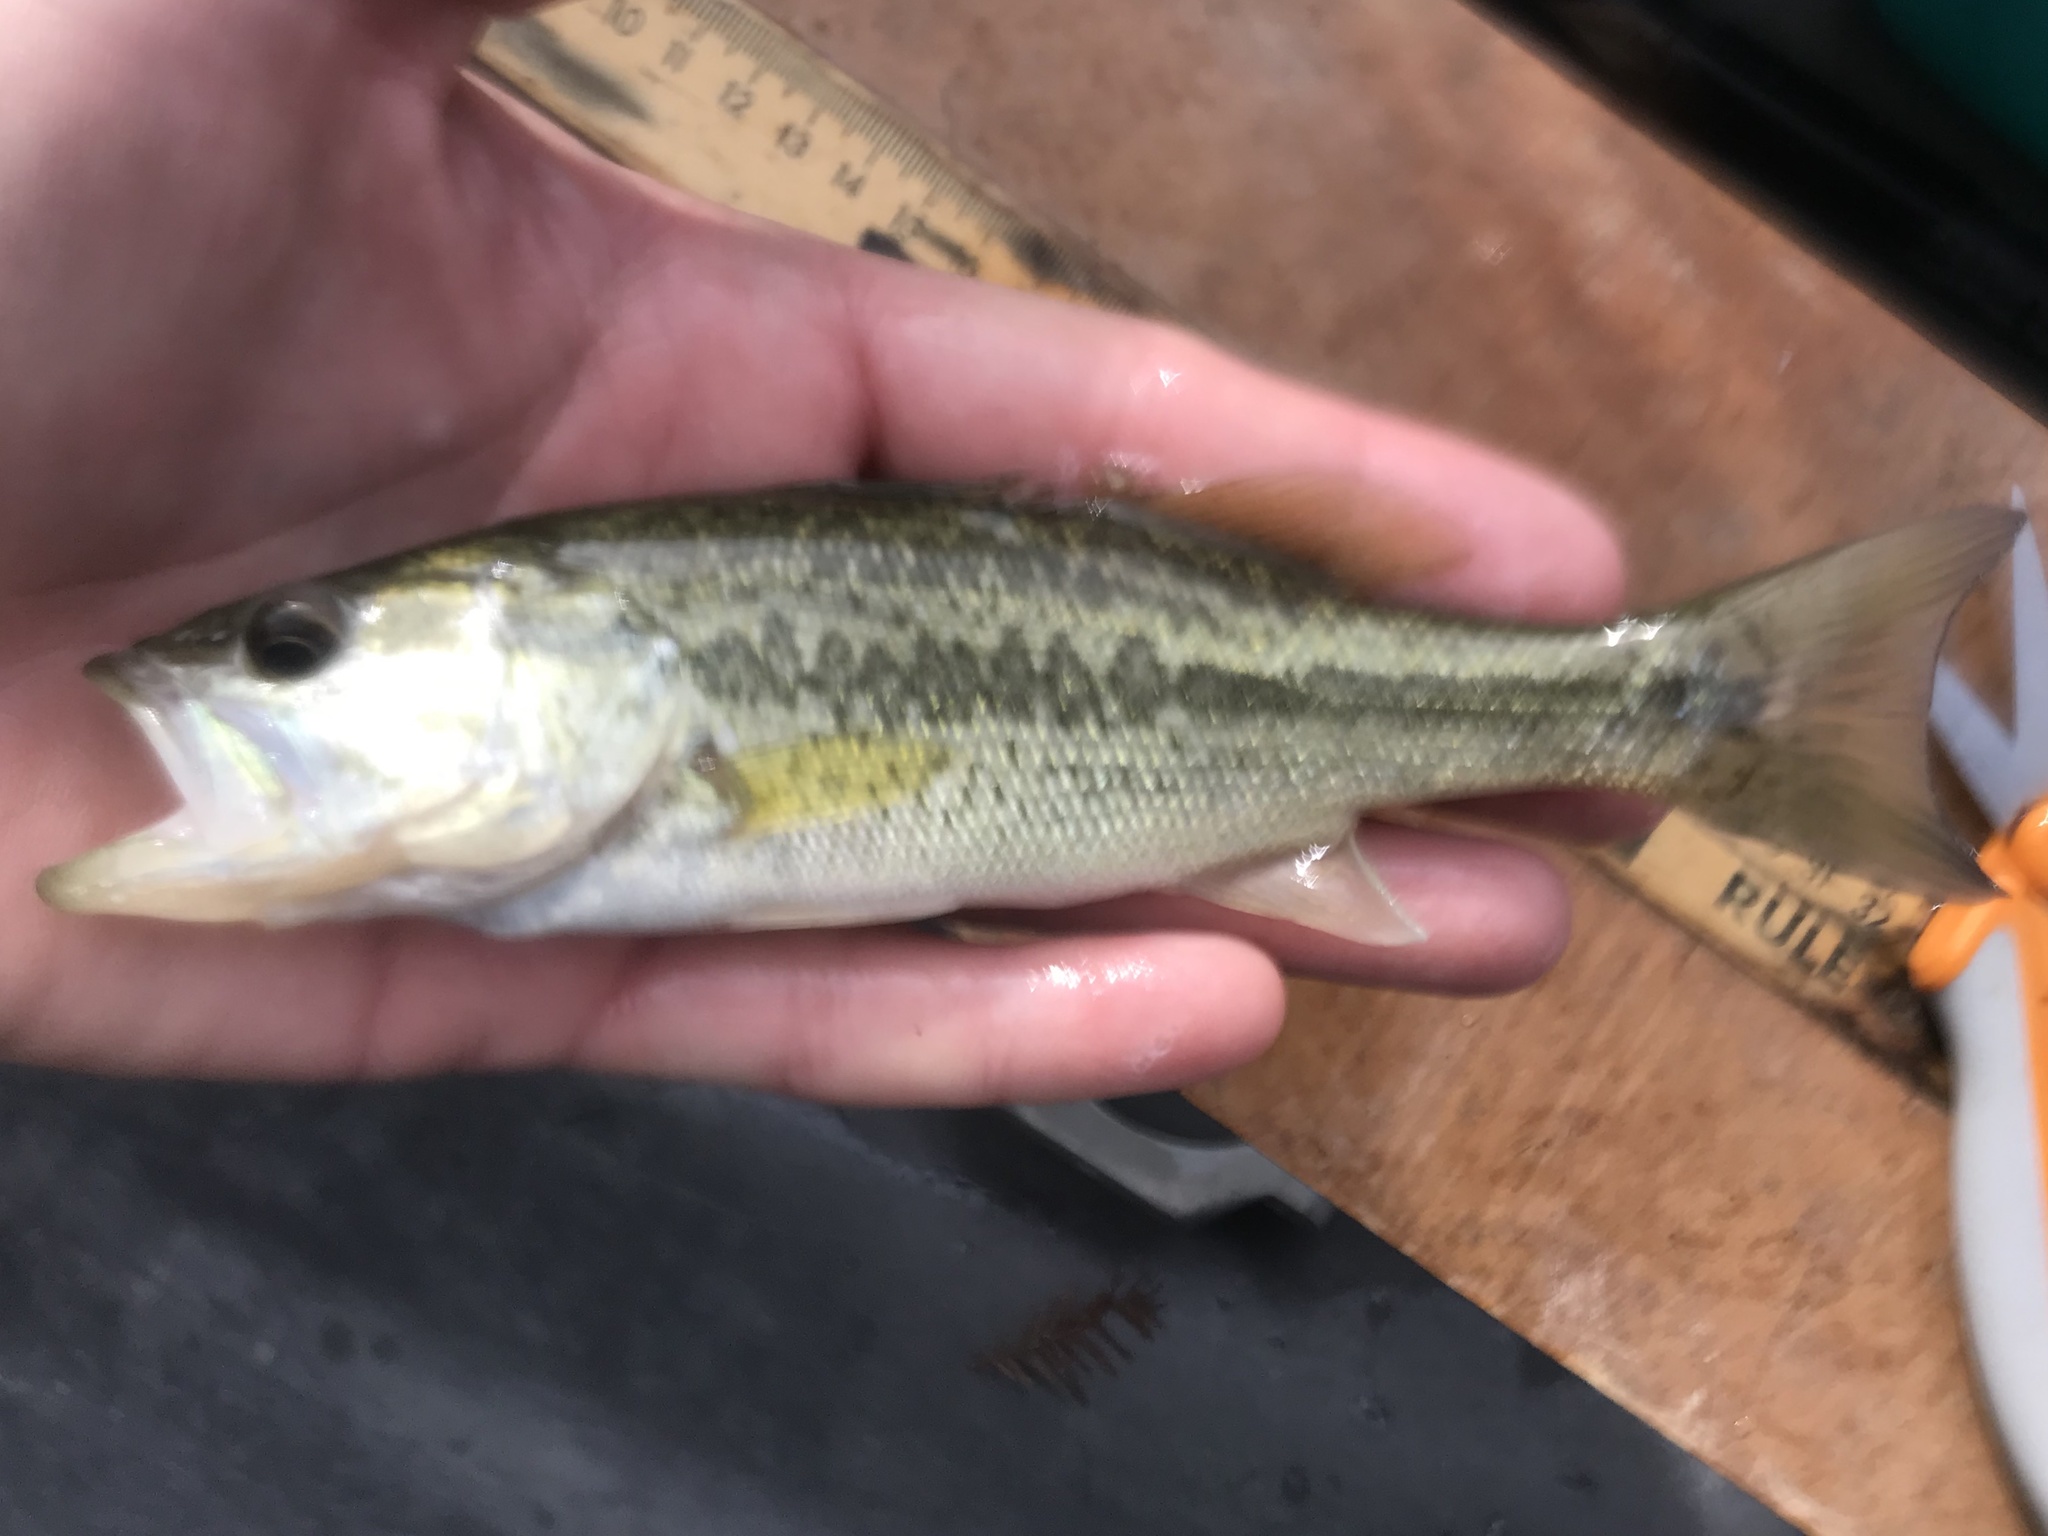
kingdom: Animalia
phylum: Chordata
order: Perciformes
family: Centrarchidae
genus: Micropterus
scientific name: Micropterus
